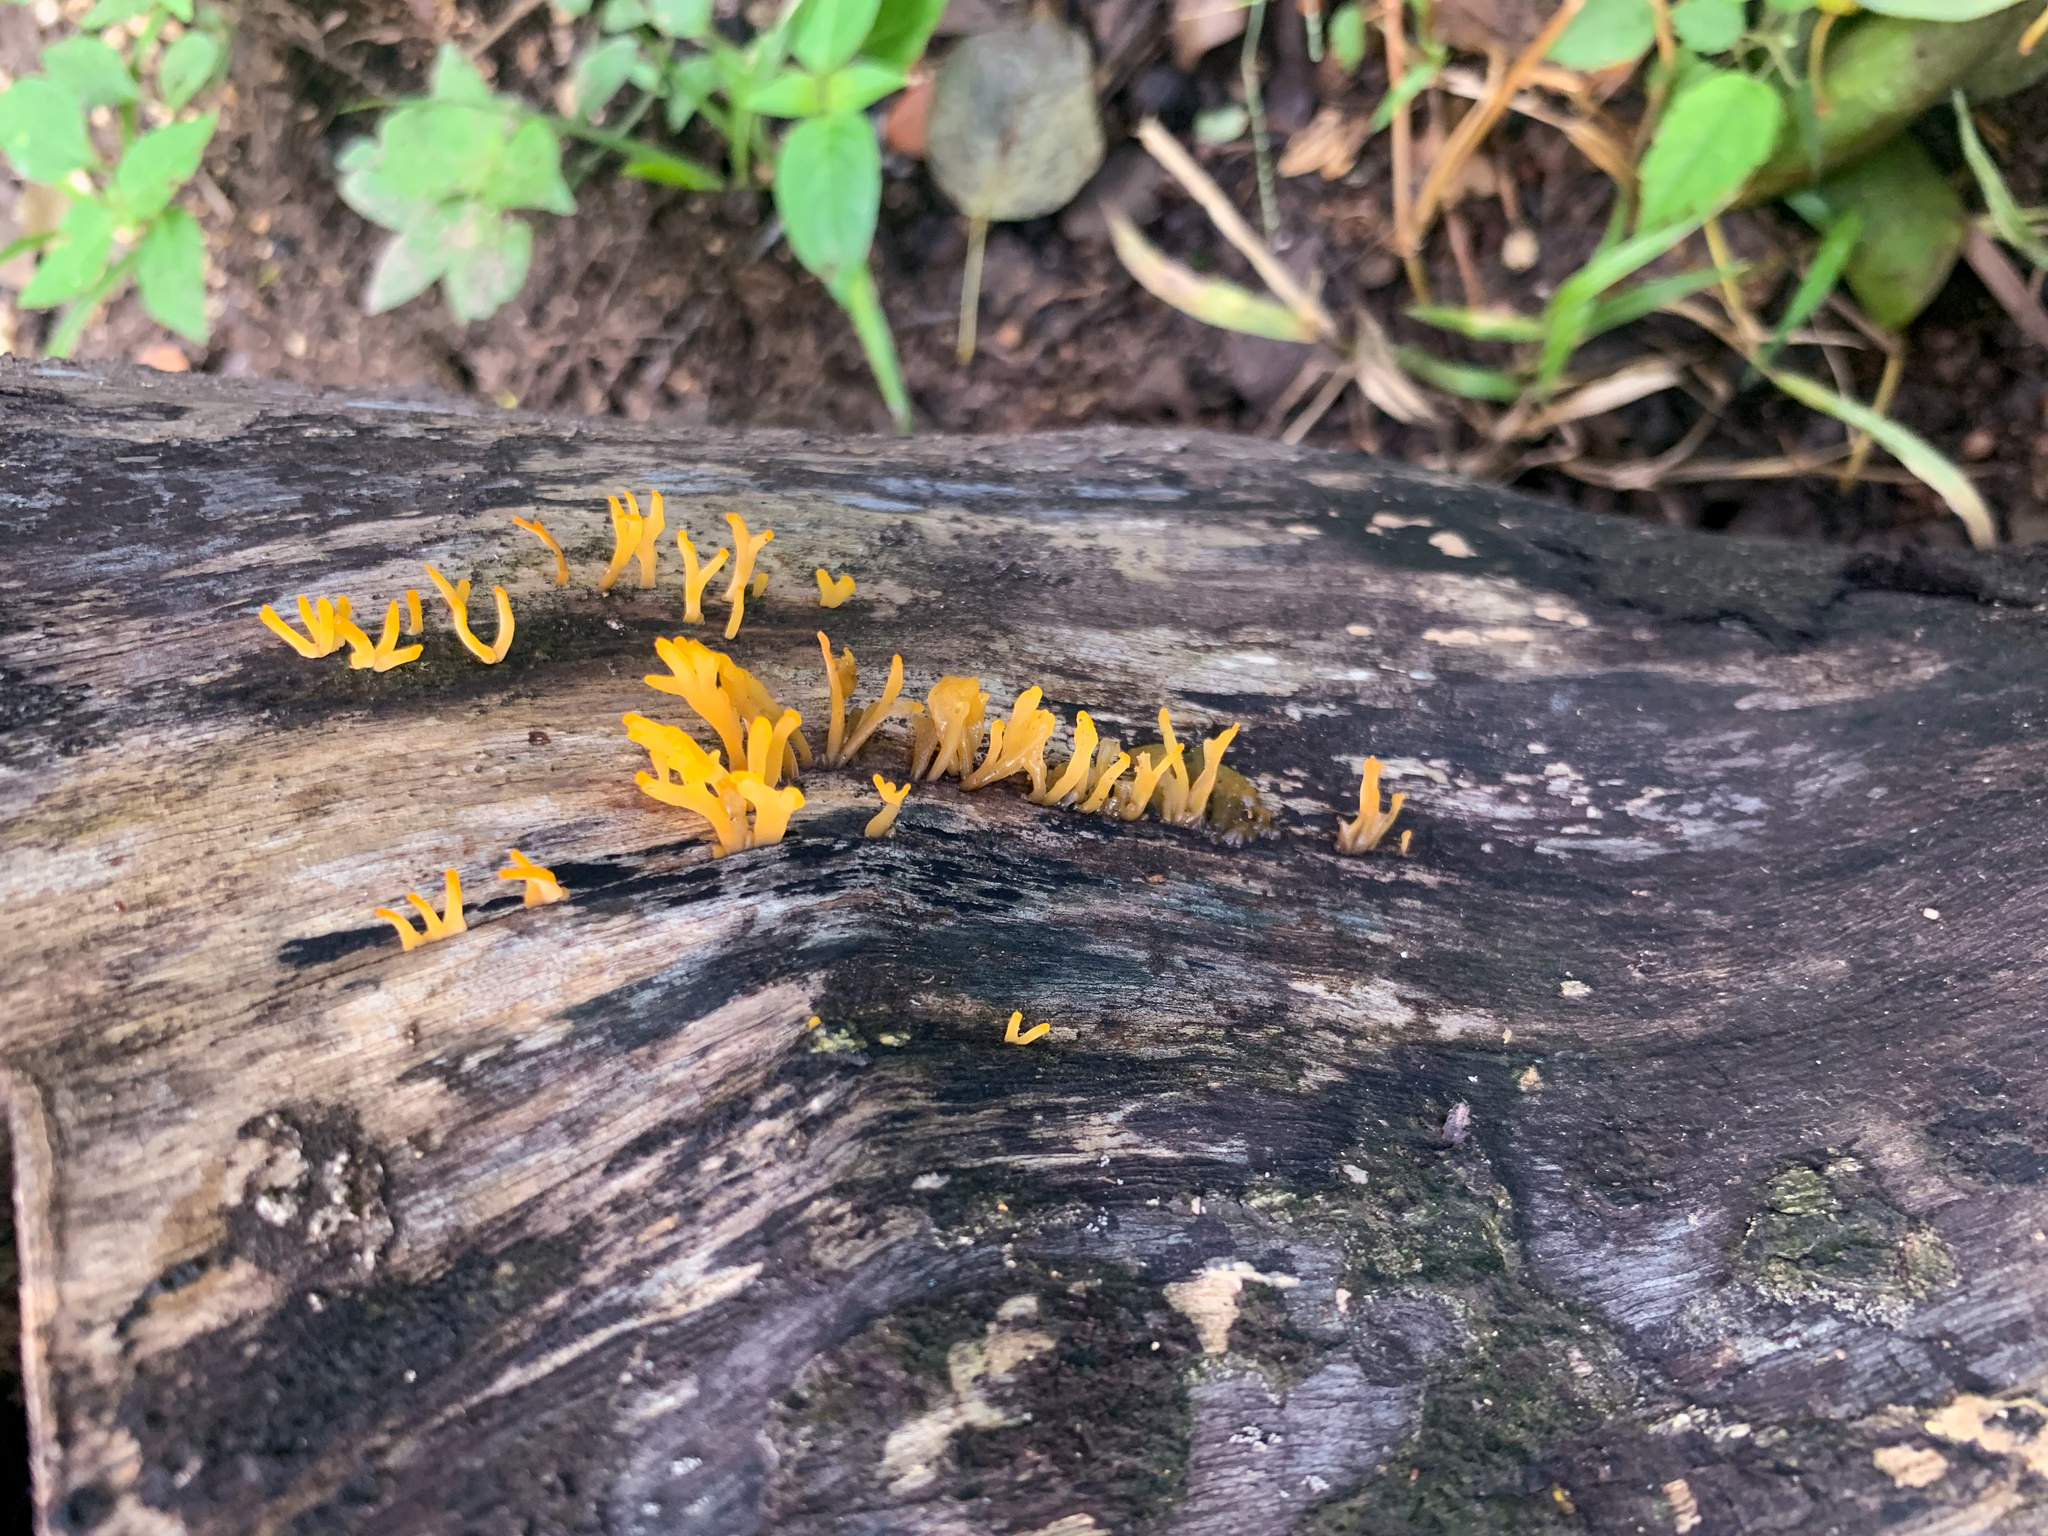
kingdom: Fungi
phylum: Basidiomycota
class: Dacrymycetes
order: Dacrymycetales
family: Dacrymycetaceae
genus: Calocera
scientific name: Calocera cornea
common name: Small stagshorn
